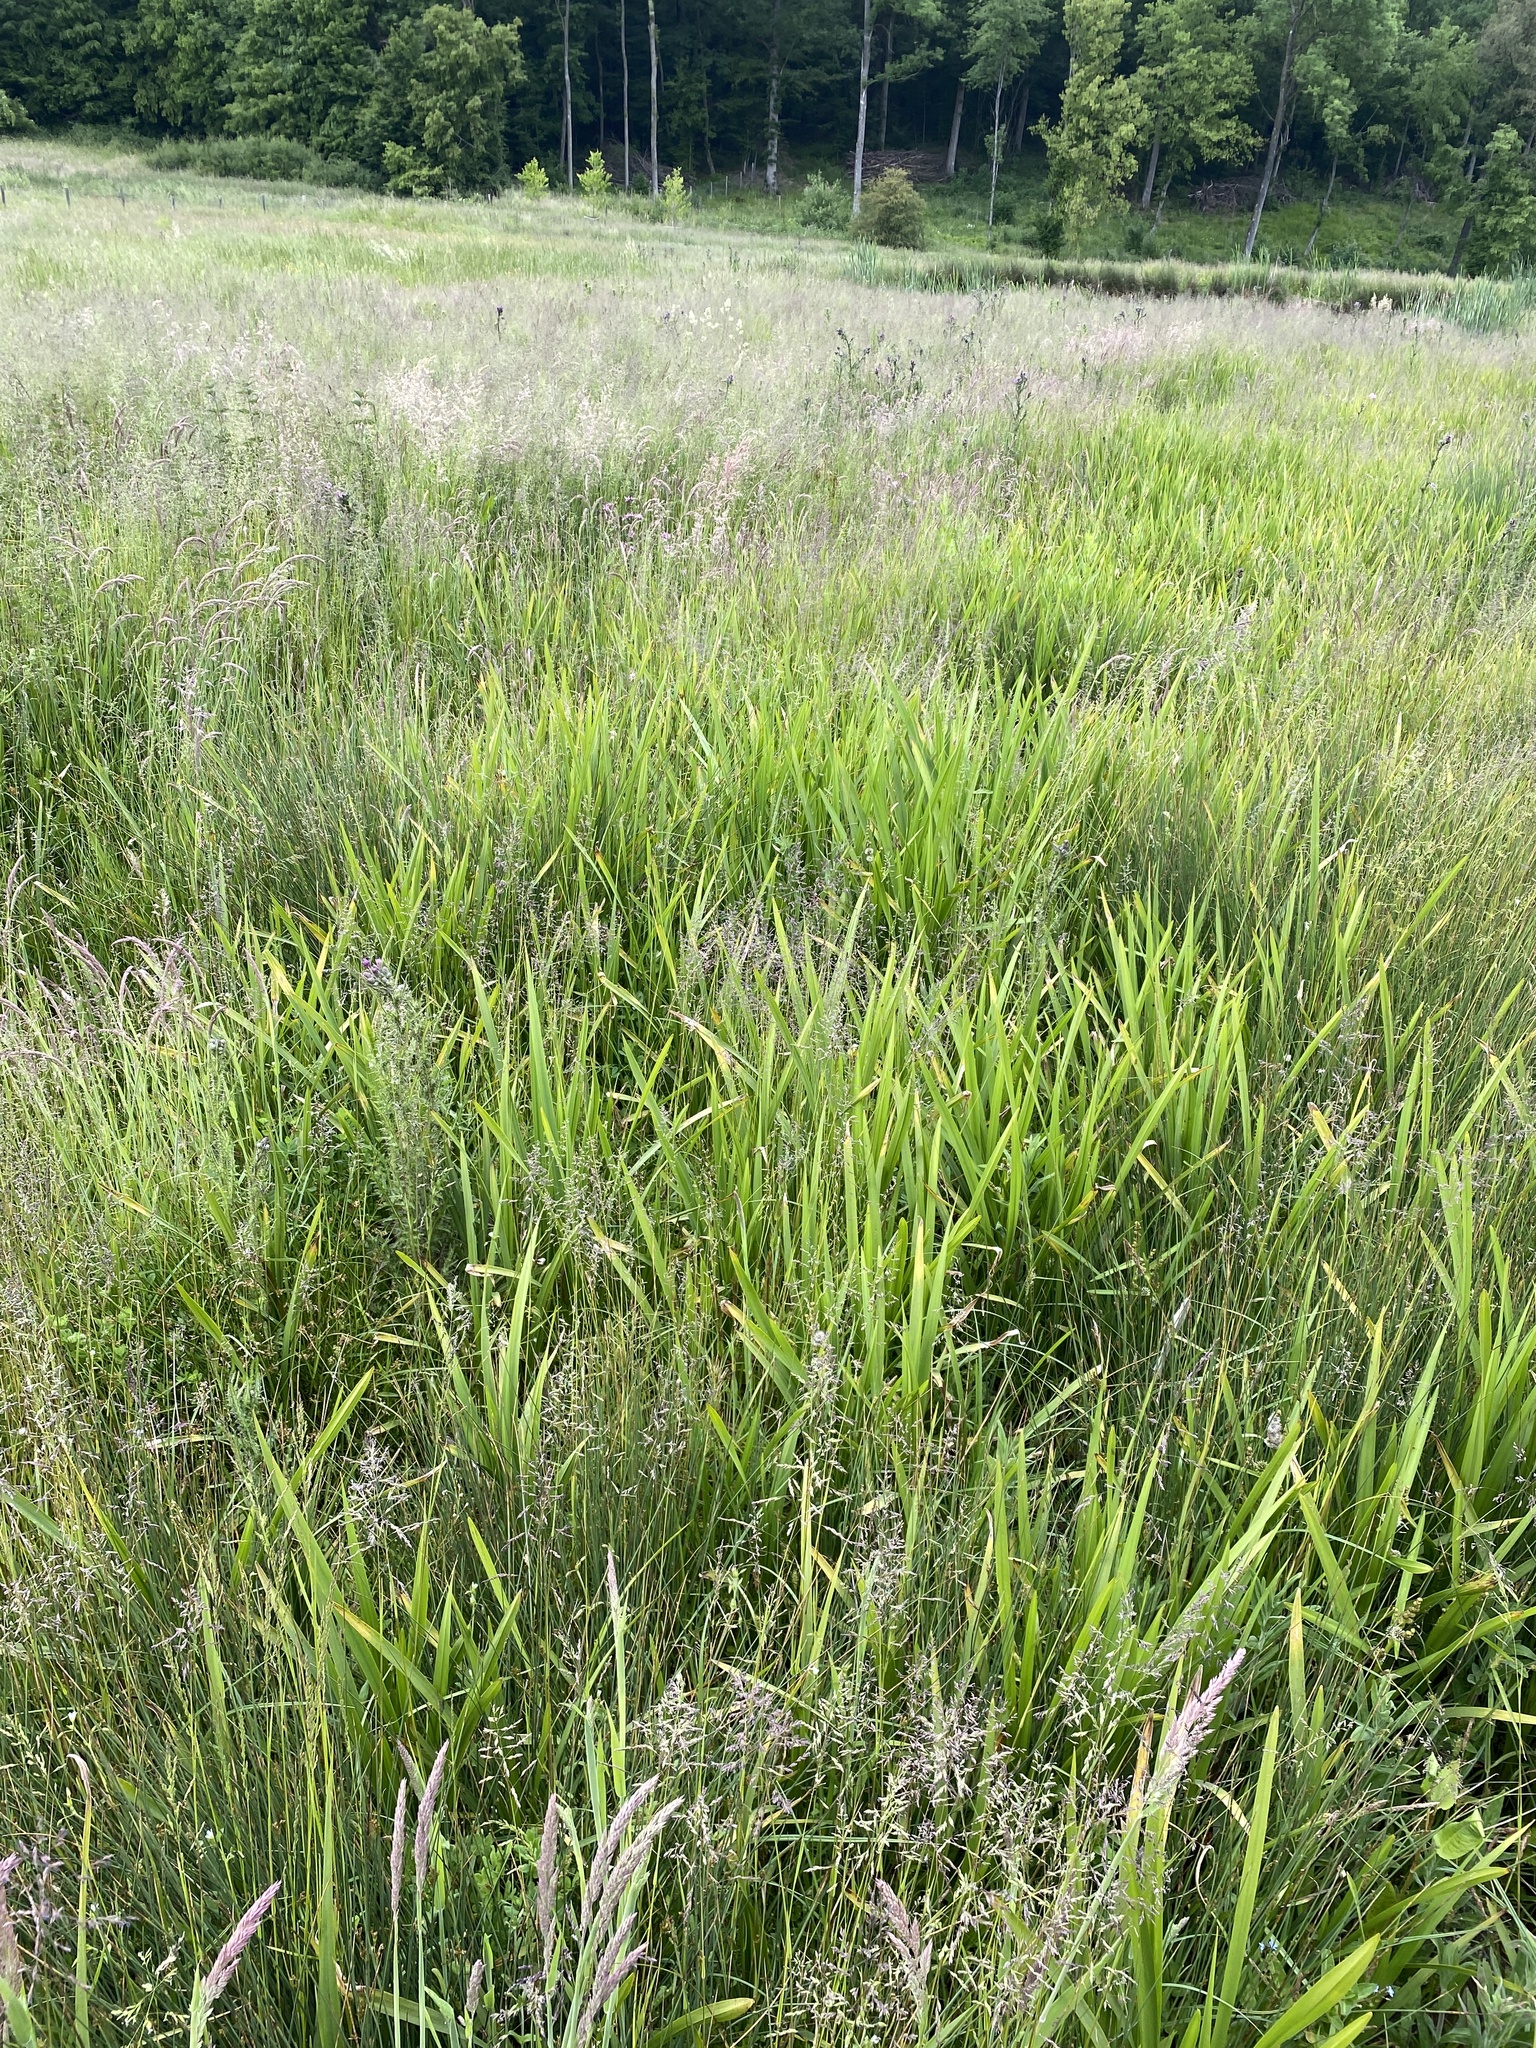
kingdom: Plantae
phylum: Tracheophyta
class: Liliopsida
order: Poales
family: Typhaceae
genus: Sparganium
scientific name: Sparganium erectum
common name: Branched bur-reed
